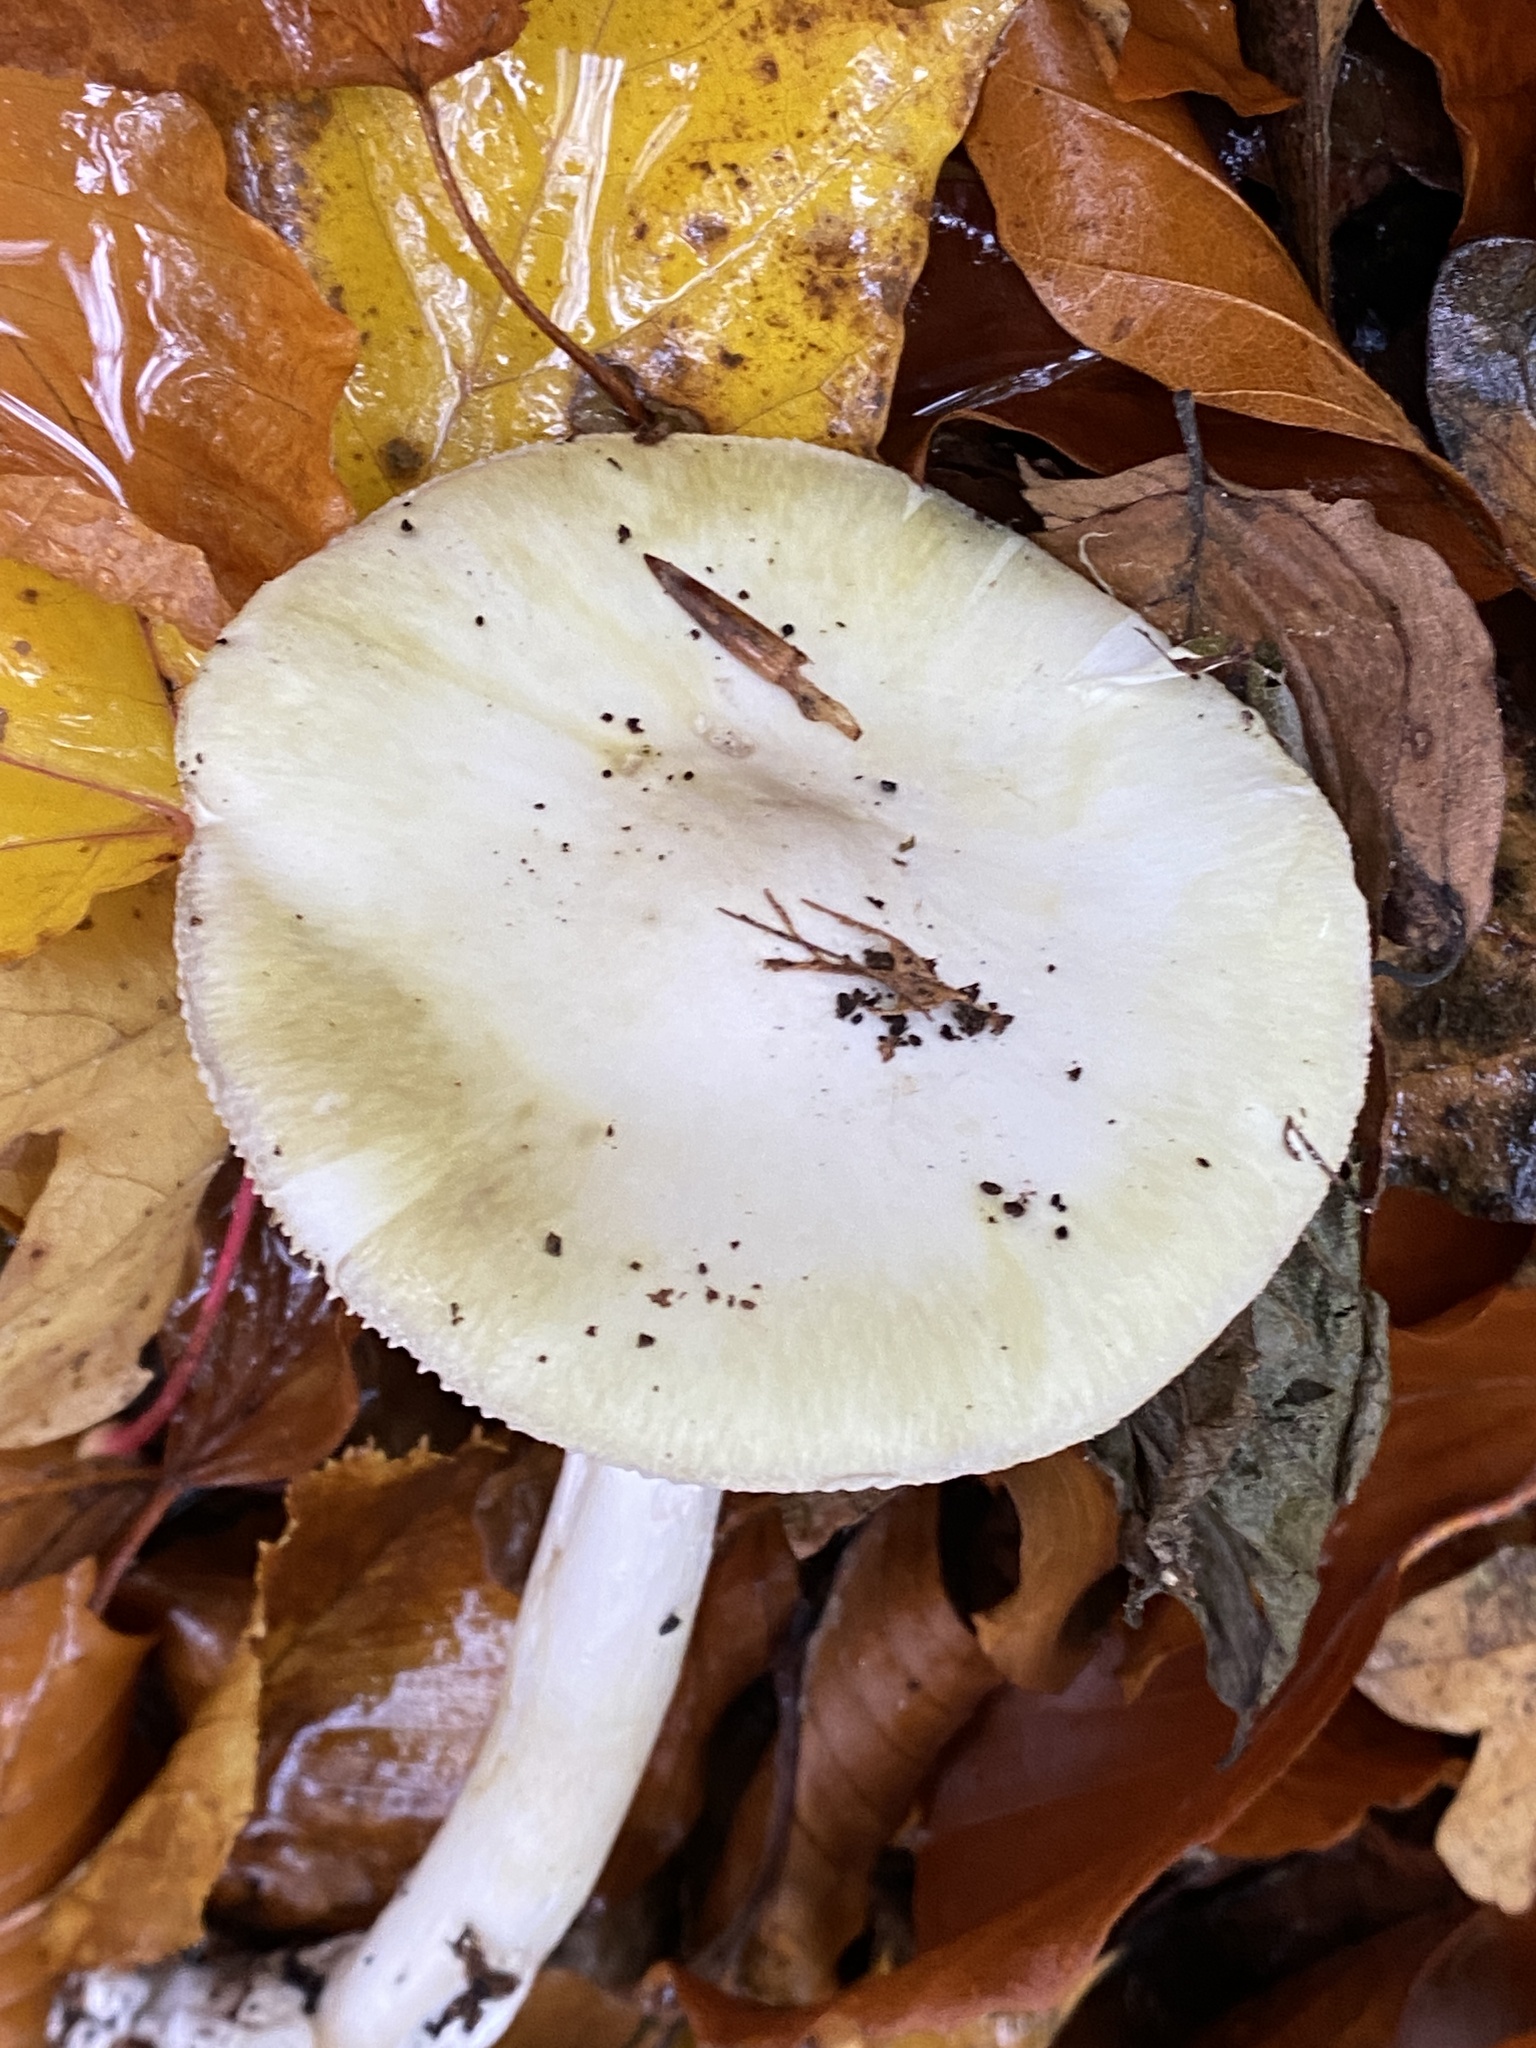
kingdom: Fungi
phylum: Basidiomycota
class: Agaricomycetes
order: Agaricales
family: Amanitaceae
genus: Amanita
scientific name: Amanita phalloides
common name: Death cap
